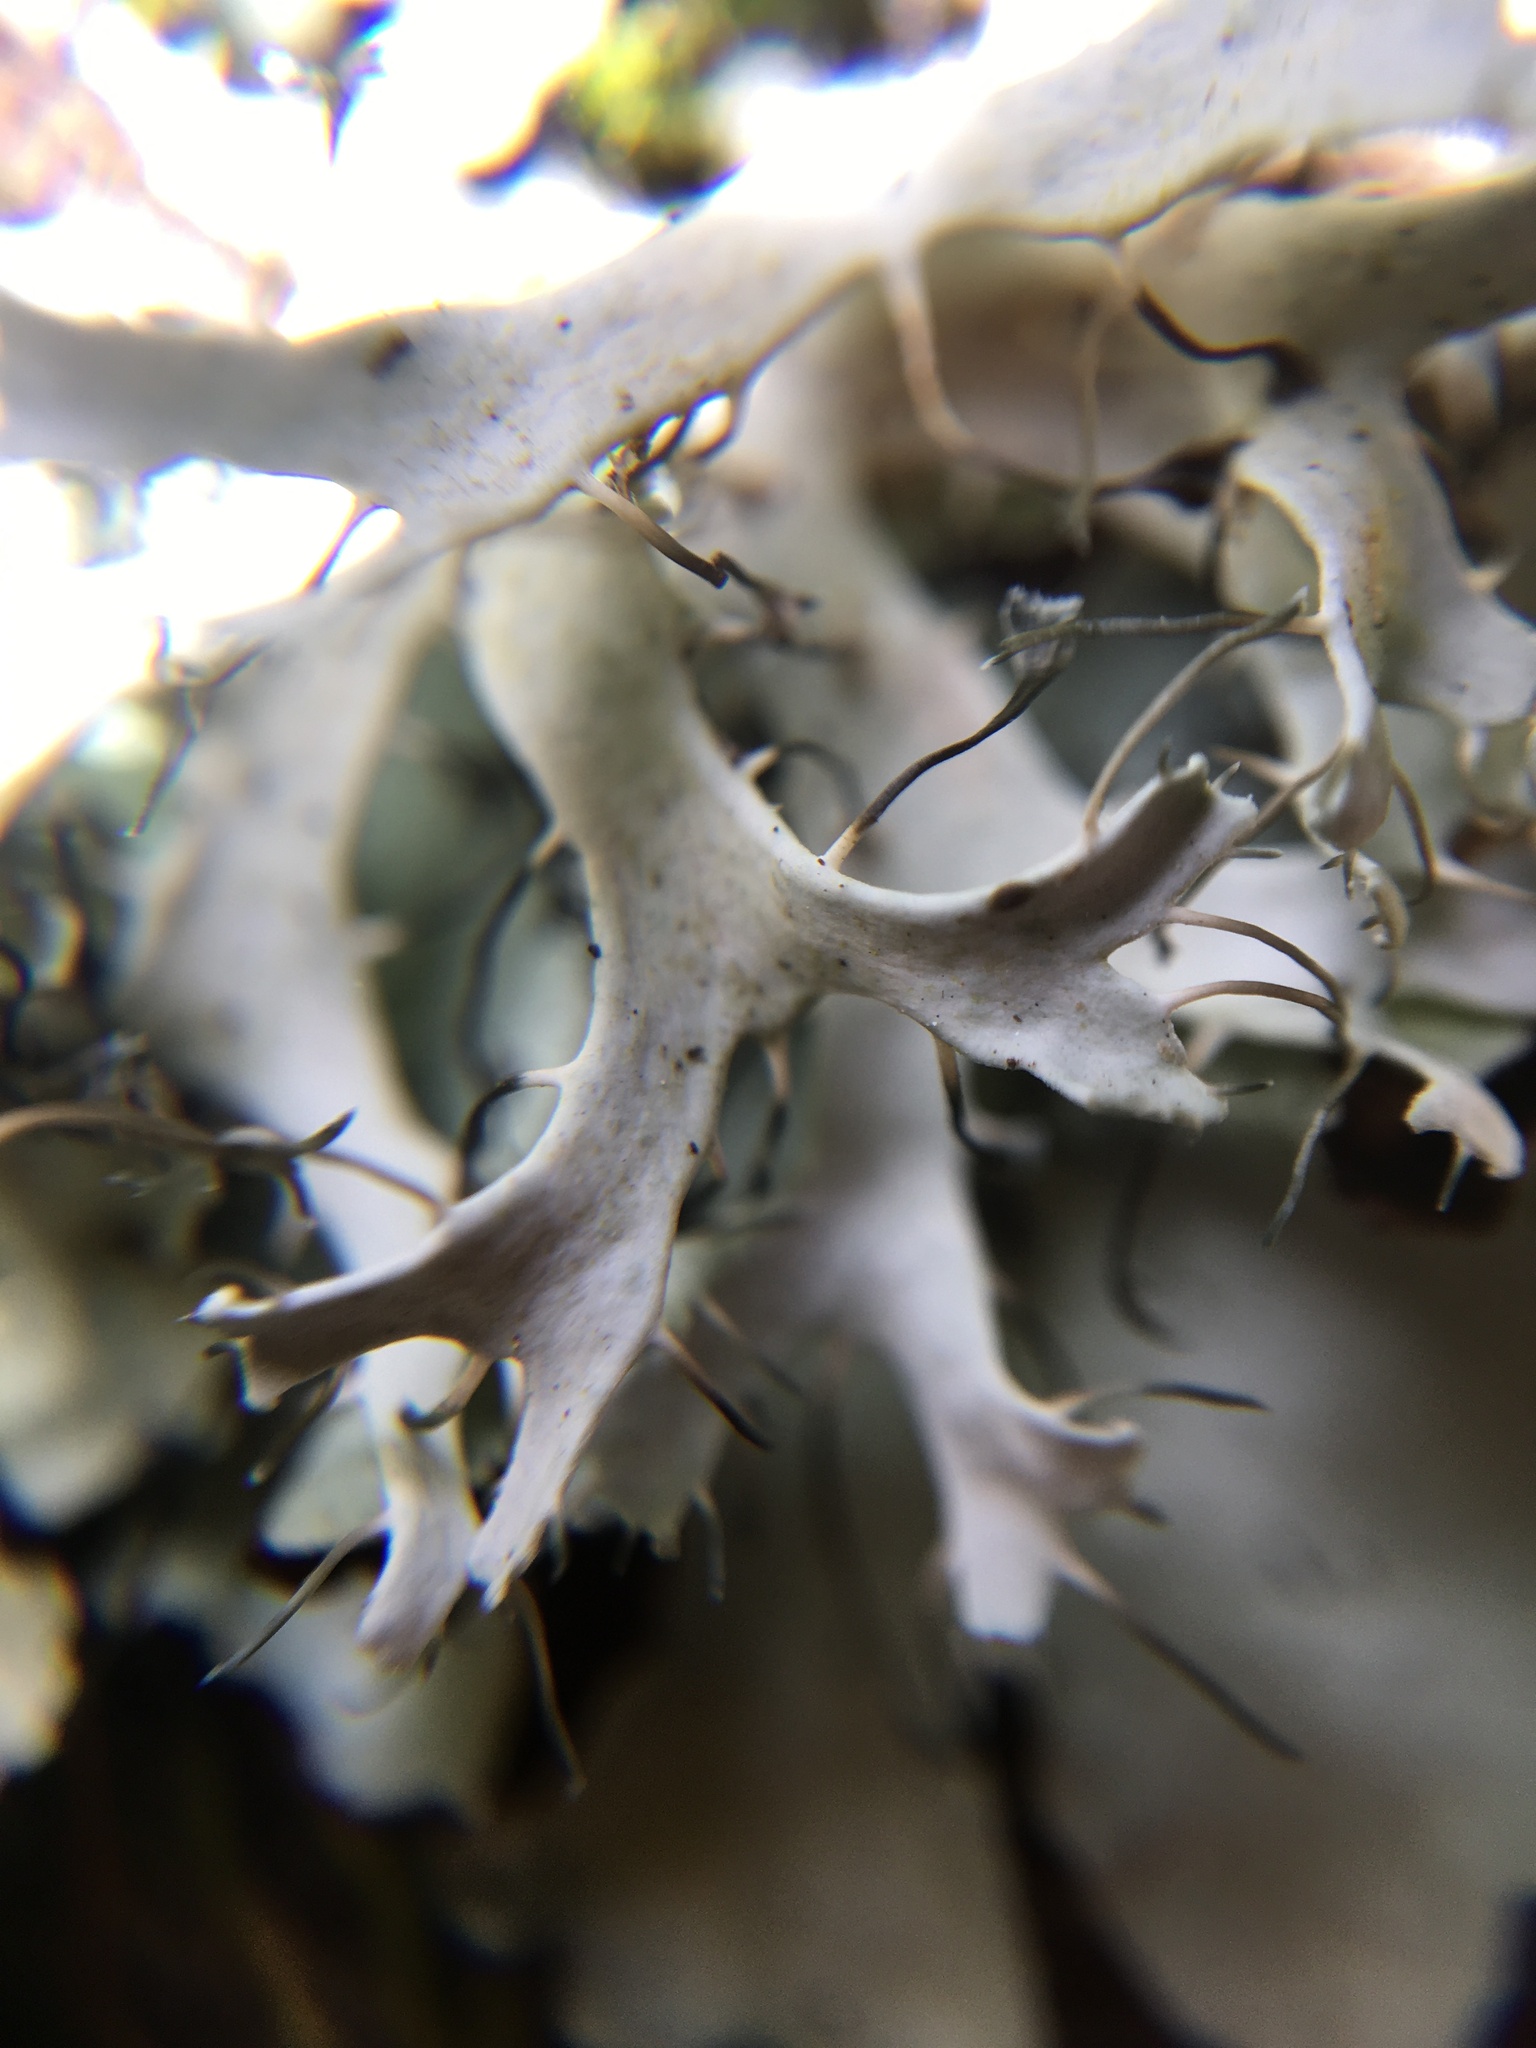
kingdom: Fungi
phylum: Ascomycota
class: Lecanoromycetes
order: Caliciales
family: Physciaceae
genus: Leucodermia
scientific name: Leucodermia leucomelos
